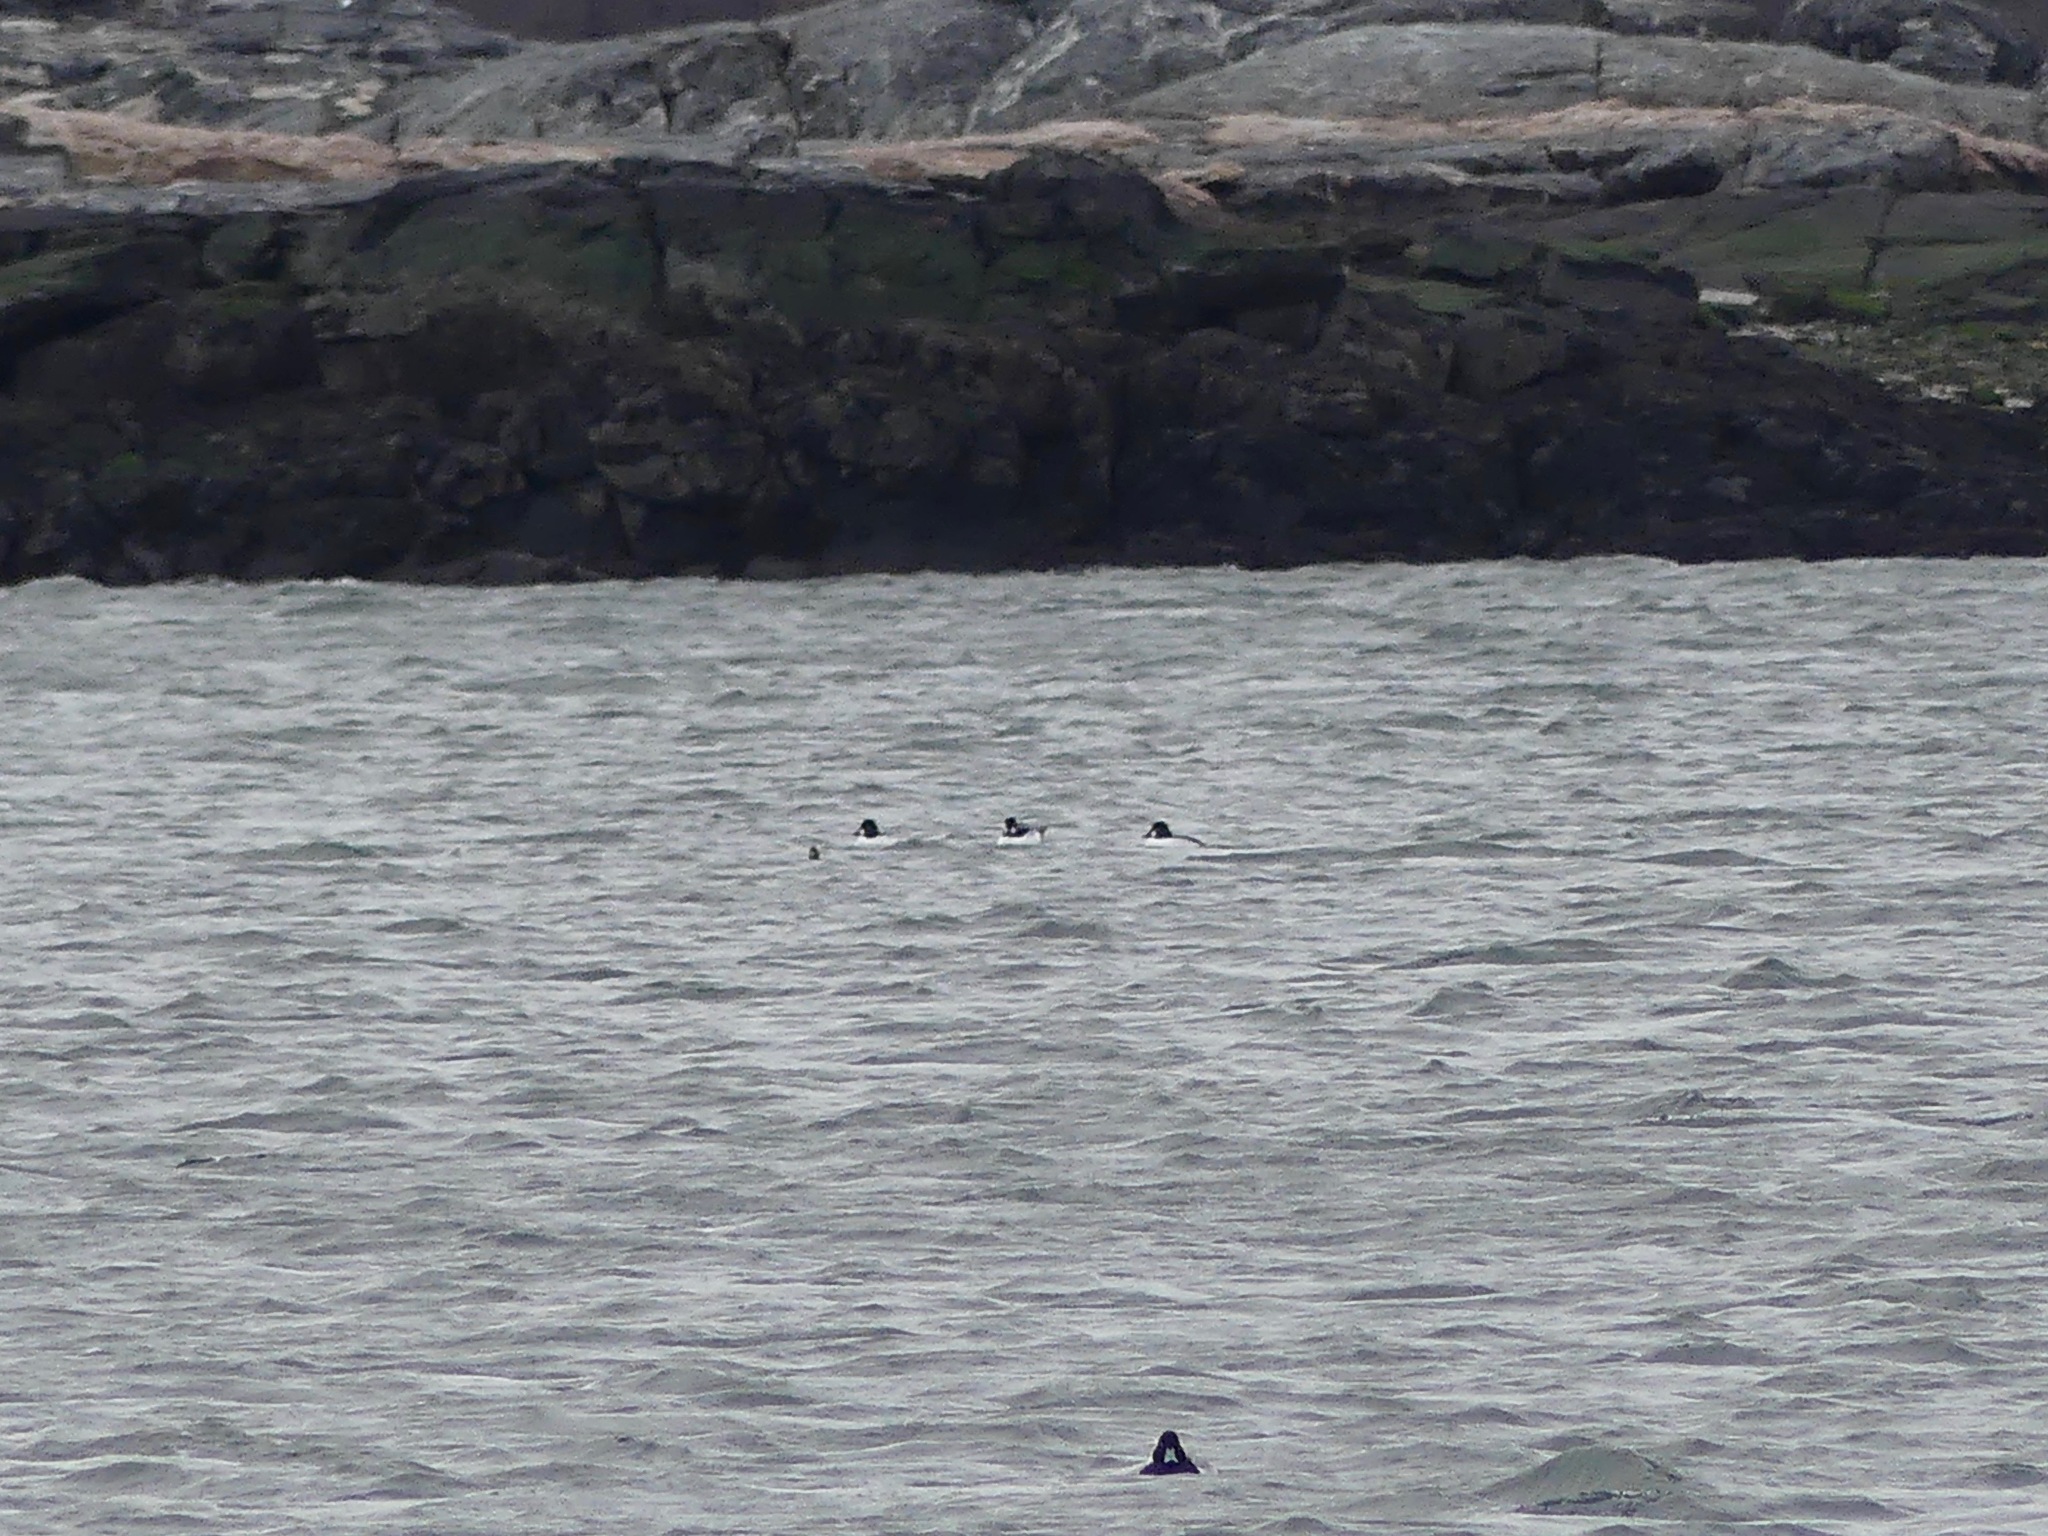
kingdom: Animalia
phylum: Chordata
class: Aves
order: Anseriformes
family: Anatidae
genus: Bucephala
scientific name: Bucephala clangula
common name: Common goldeneye
